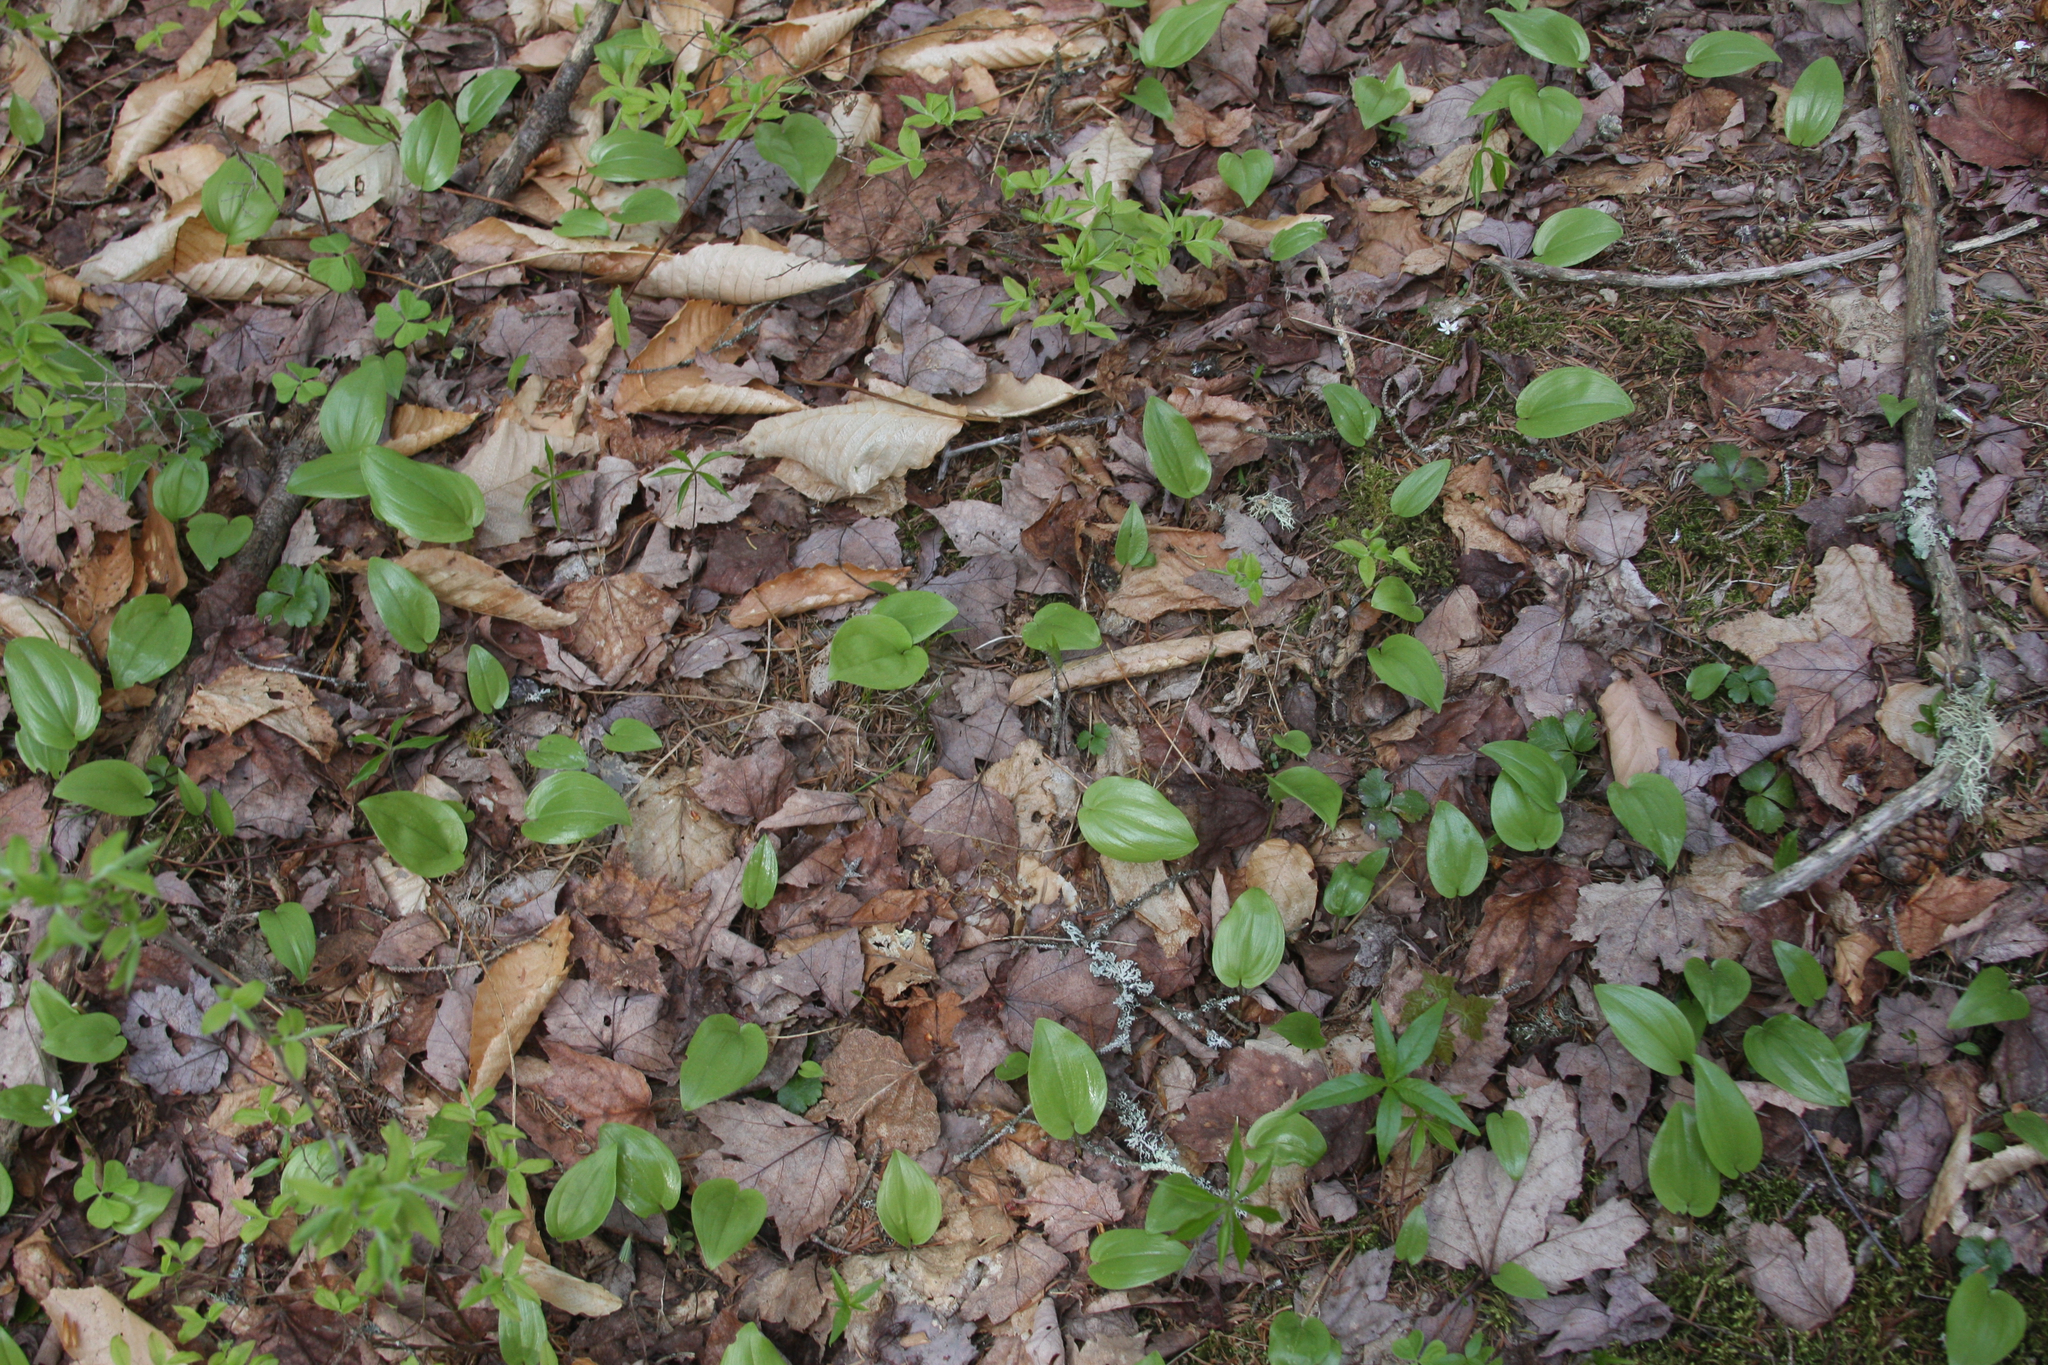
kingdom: Plantae
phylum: Tracheophyta
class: Liliopsida
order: Asparagales
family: Asparagaceae
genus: Maianthemum
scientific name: Maianthemum canadense
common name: False lily-of-the-valley
